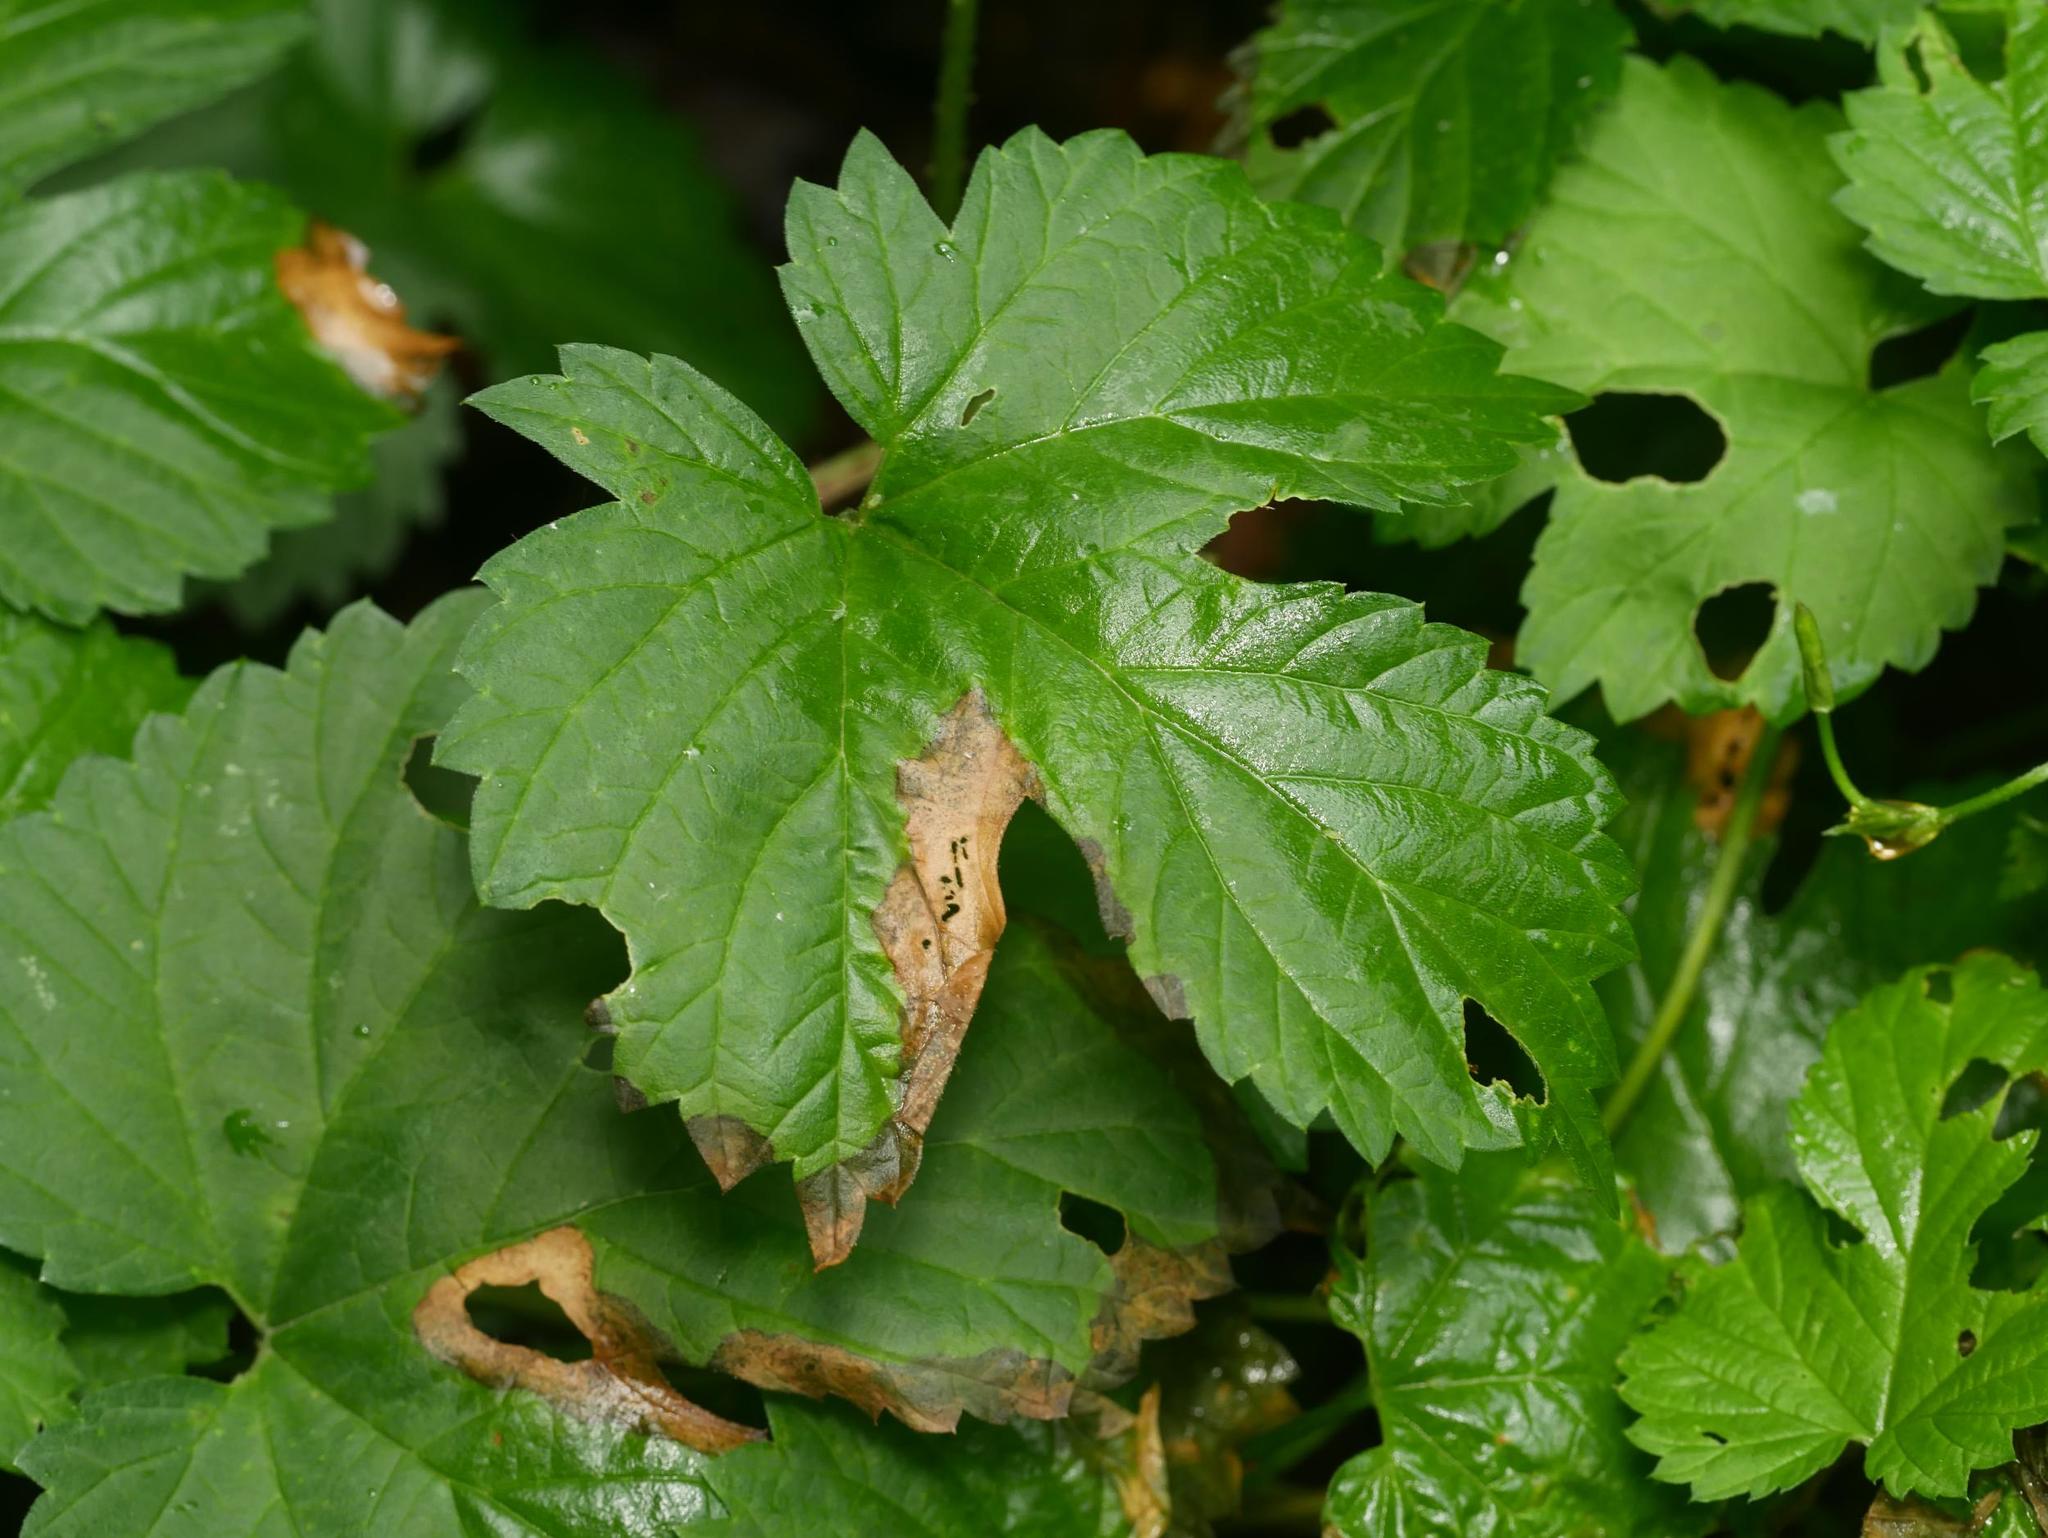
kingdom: Plantae
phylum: Tracheophyta
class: Magnoliopsida
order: Rosales
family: Cannabaceae
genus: Humulus
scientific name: Humulus lupulus
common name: Hop
